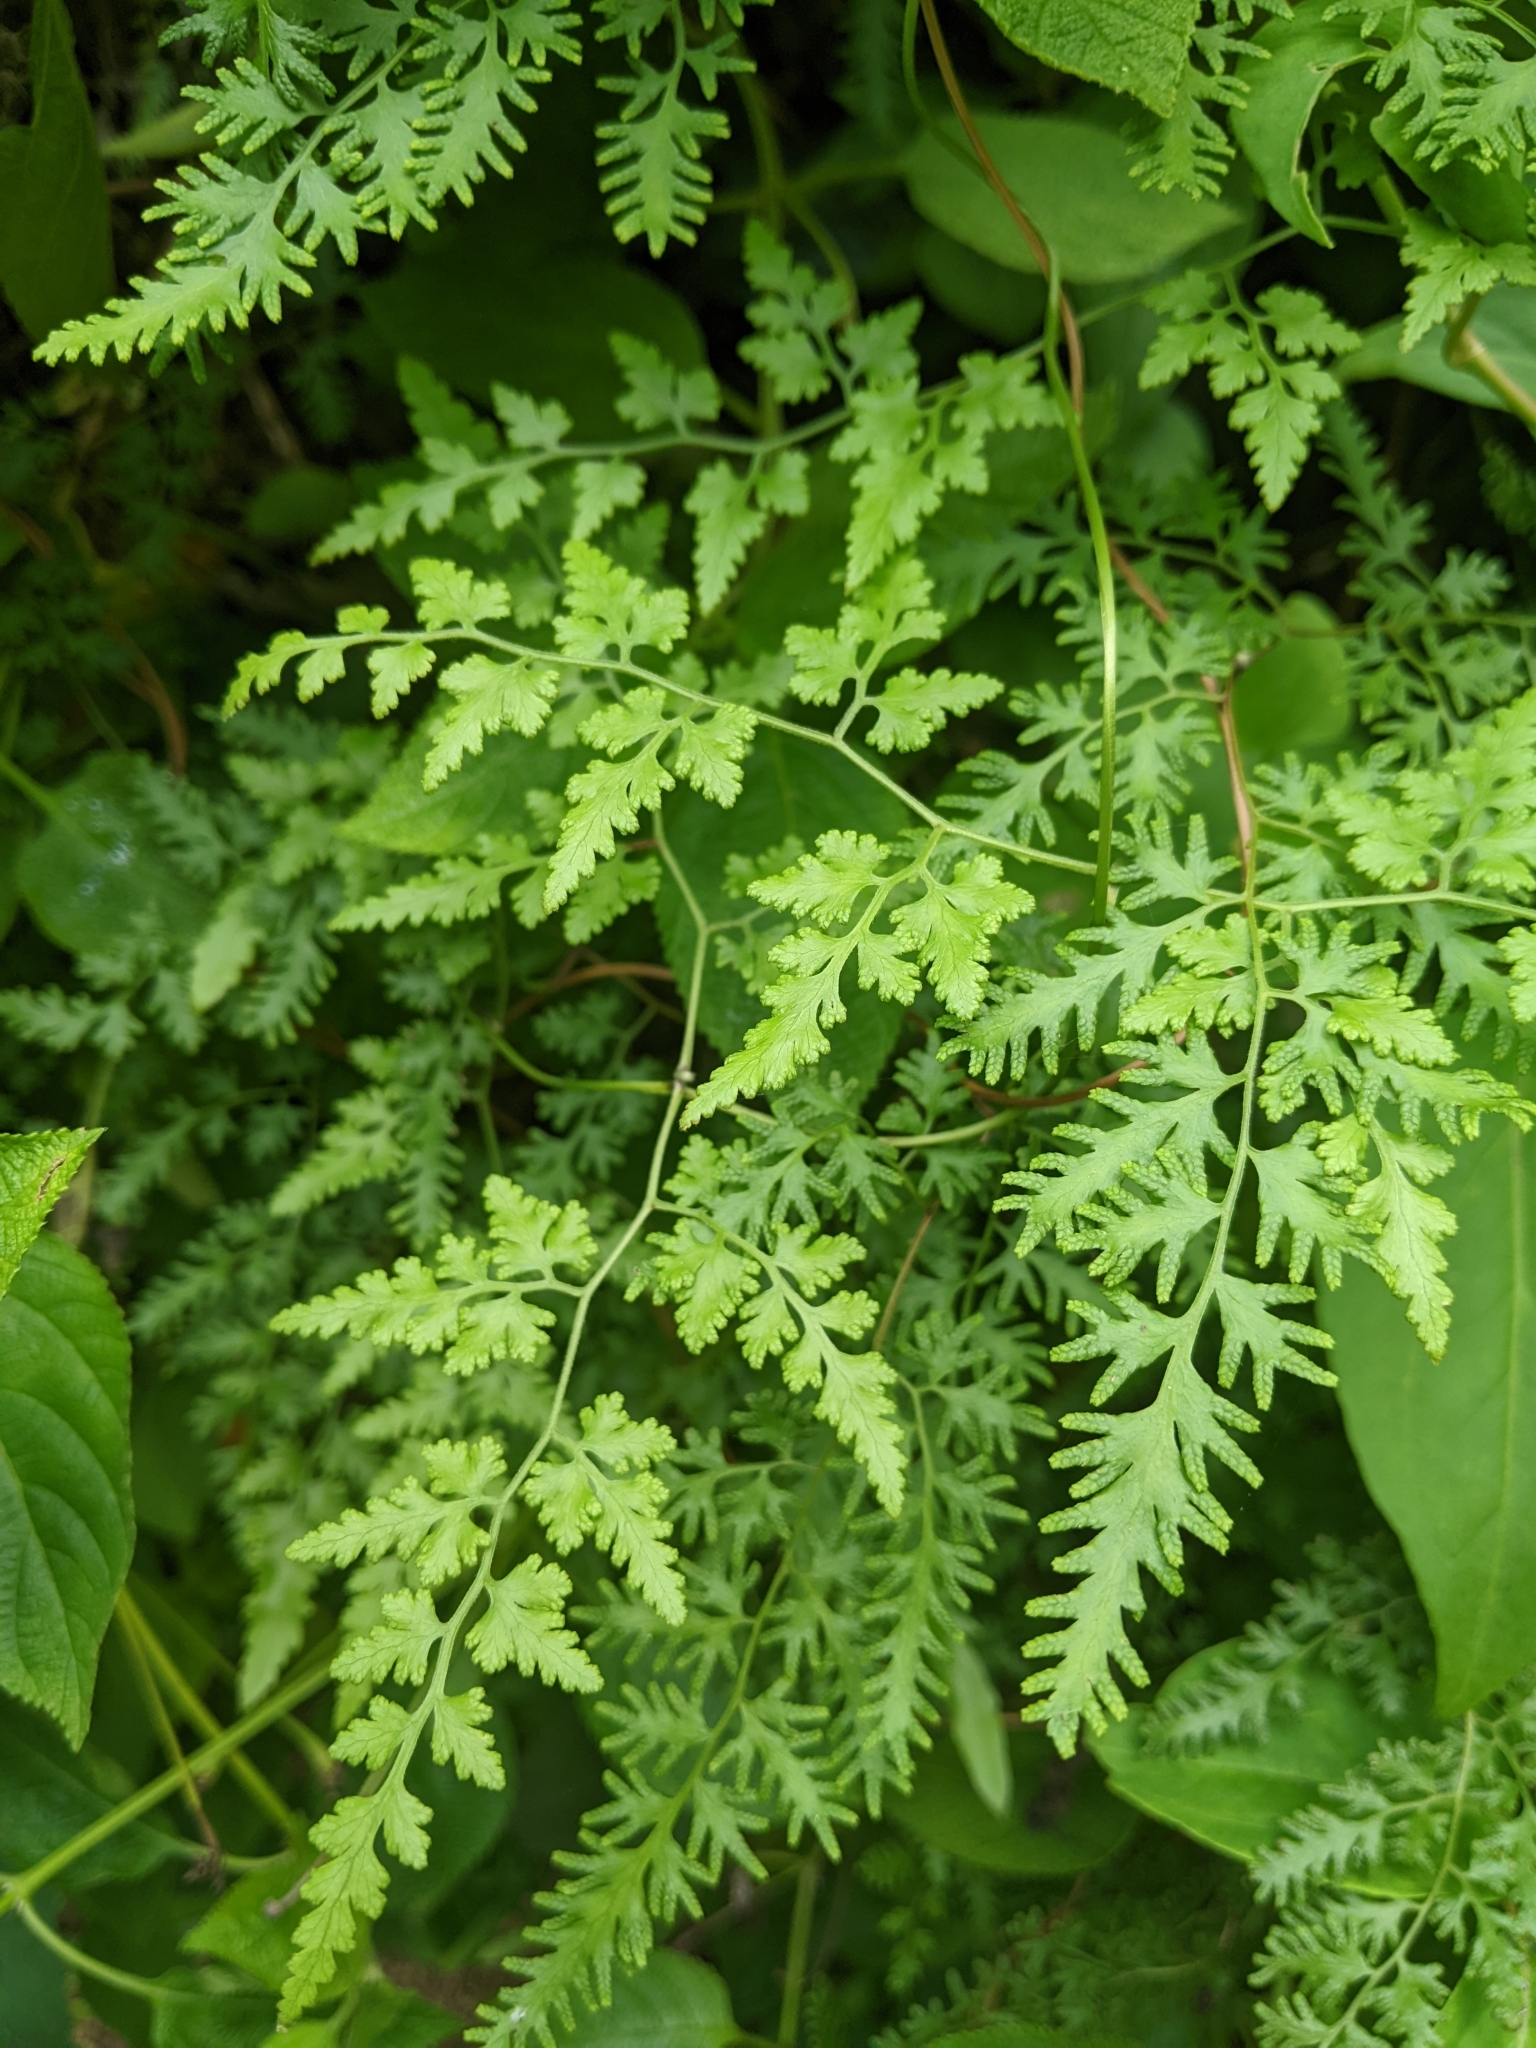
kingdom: Plantae
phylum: Tracheophyta
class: Polypodiopsida
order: Schizaeales
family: Lygodiaceae
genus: Lygodium
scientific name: Lygodium japonicum
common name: Japanese climbing fern
